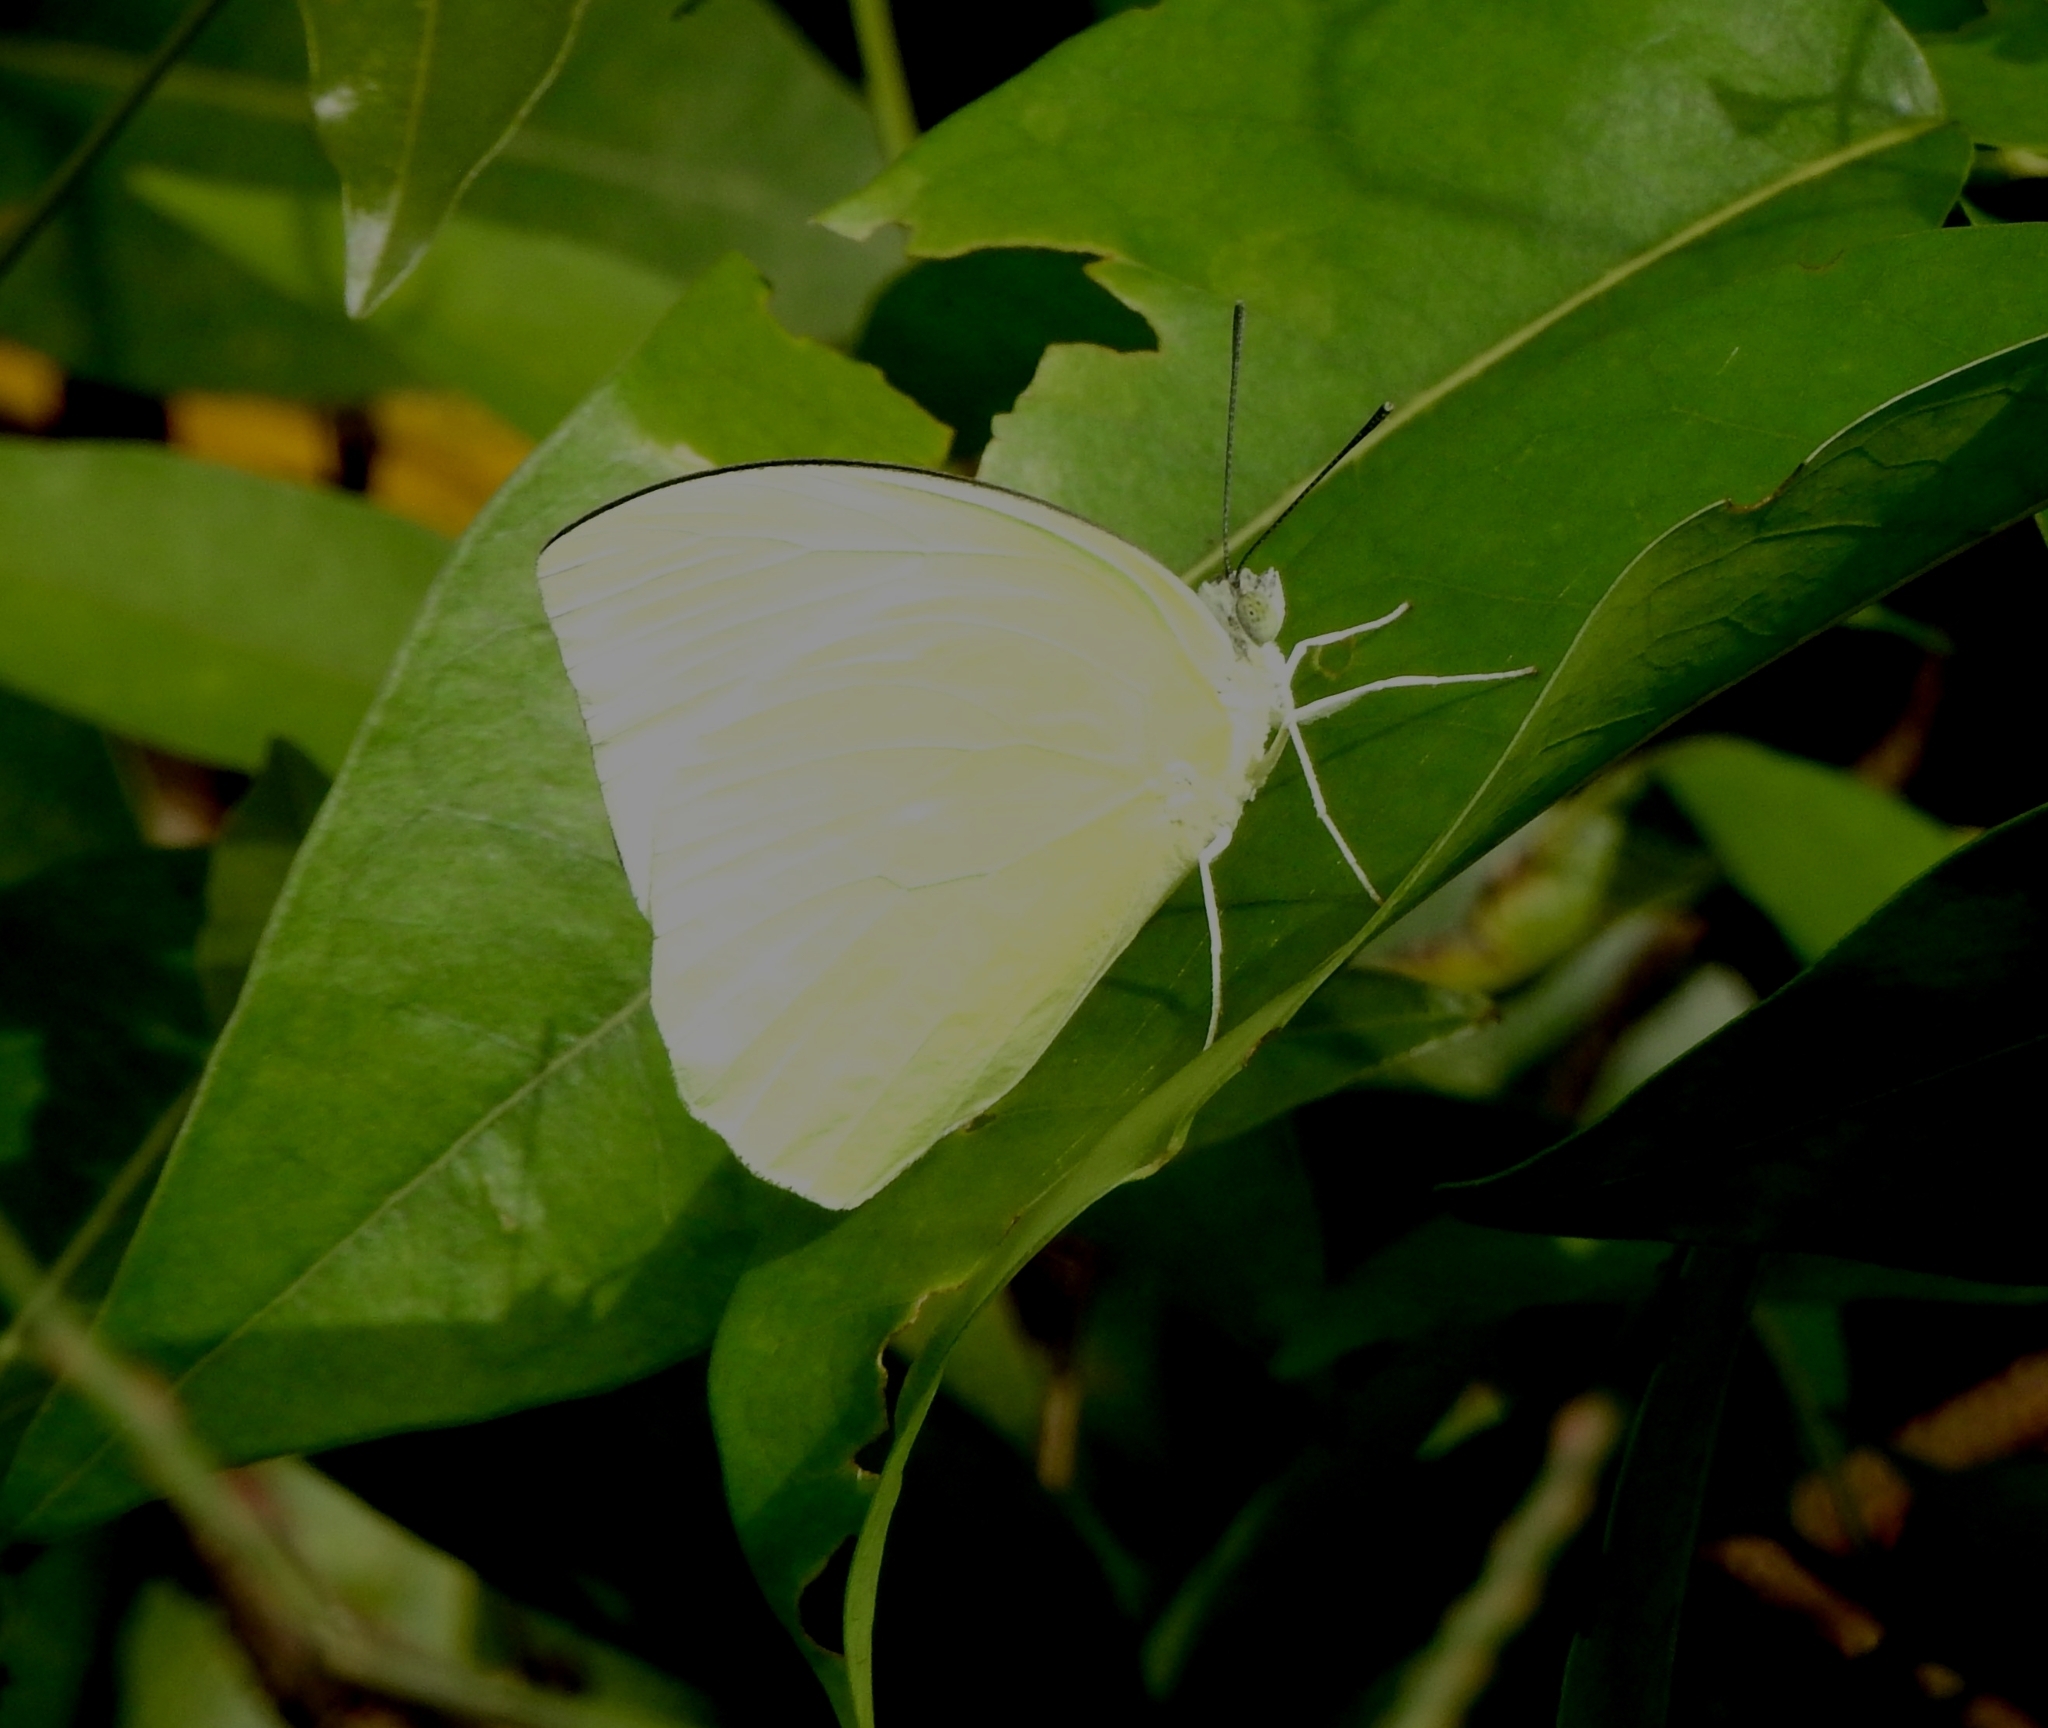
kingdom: Animalia
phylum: Arthropoda
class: Insecta
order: Lepidoptera
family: Pieridae
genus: Catopsilia
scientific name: Catopsilia pomona
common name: Common emigrant
